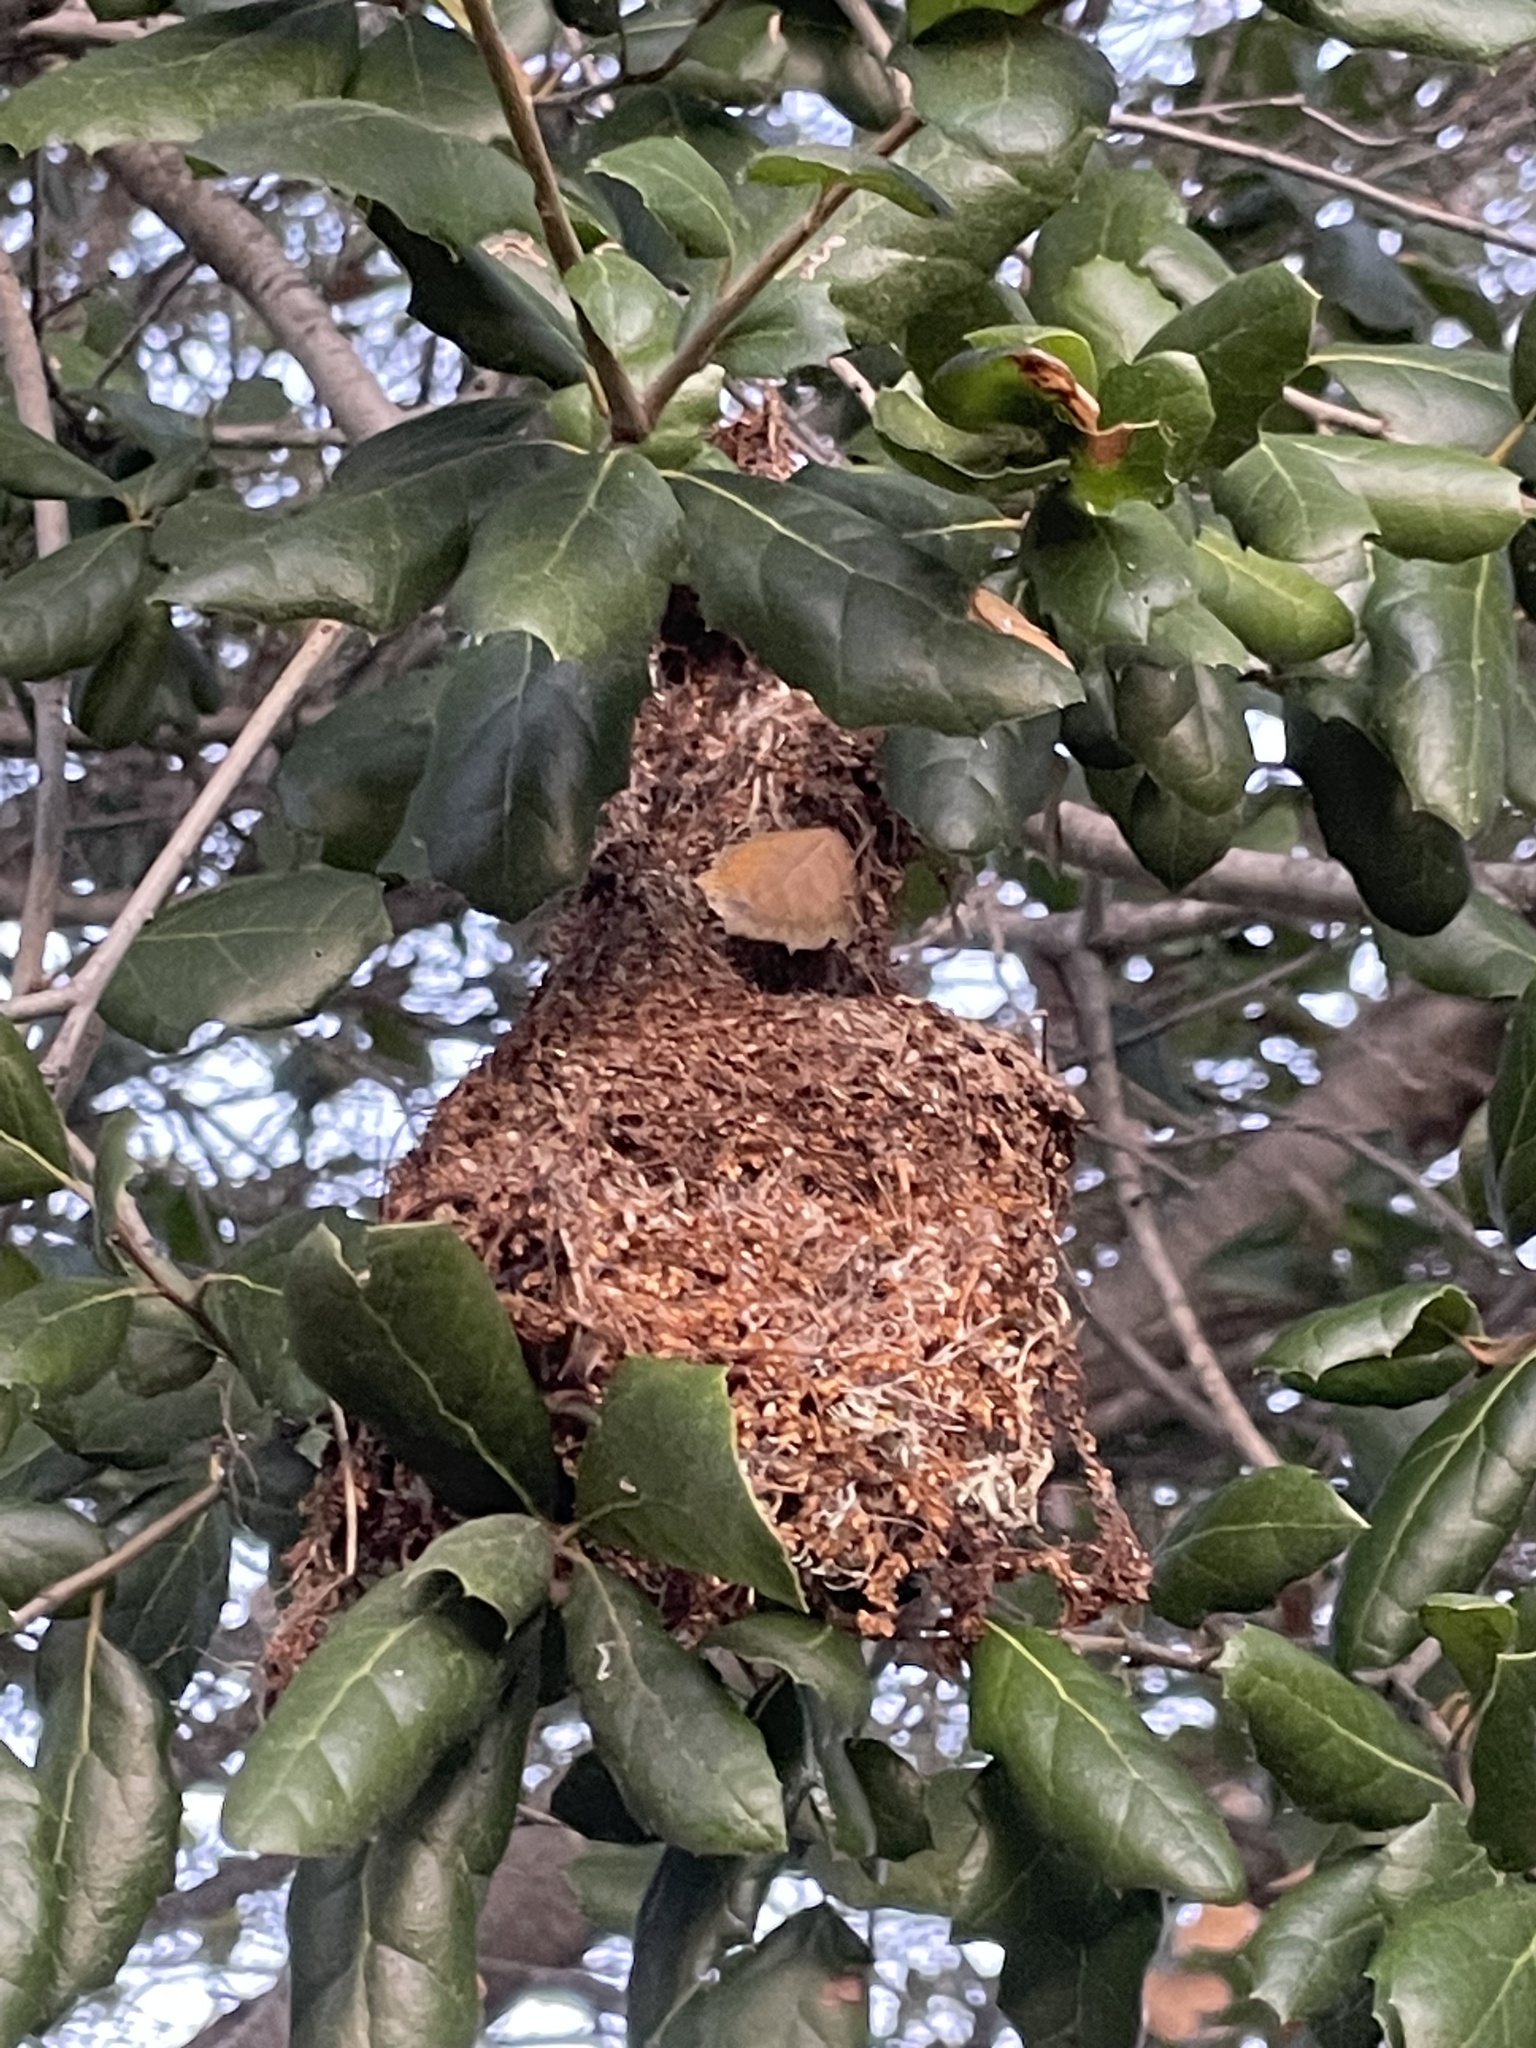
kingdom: Animalia
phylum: Chordata
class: Aves
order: Passeriformes
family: Aegithalidae
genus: Psaltriparus
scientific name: Psaltriparus minimus
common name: American bushtit
